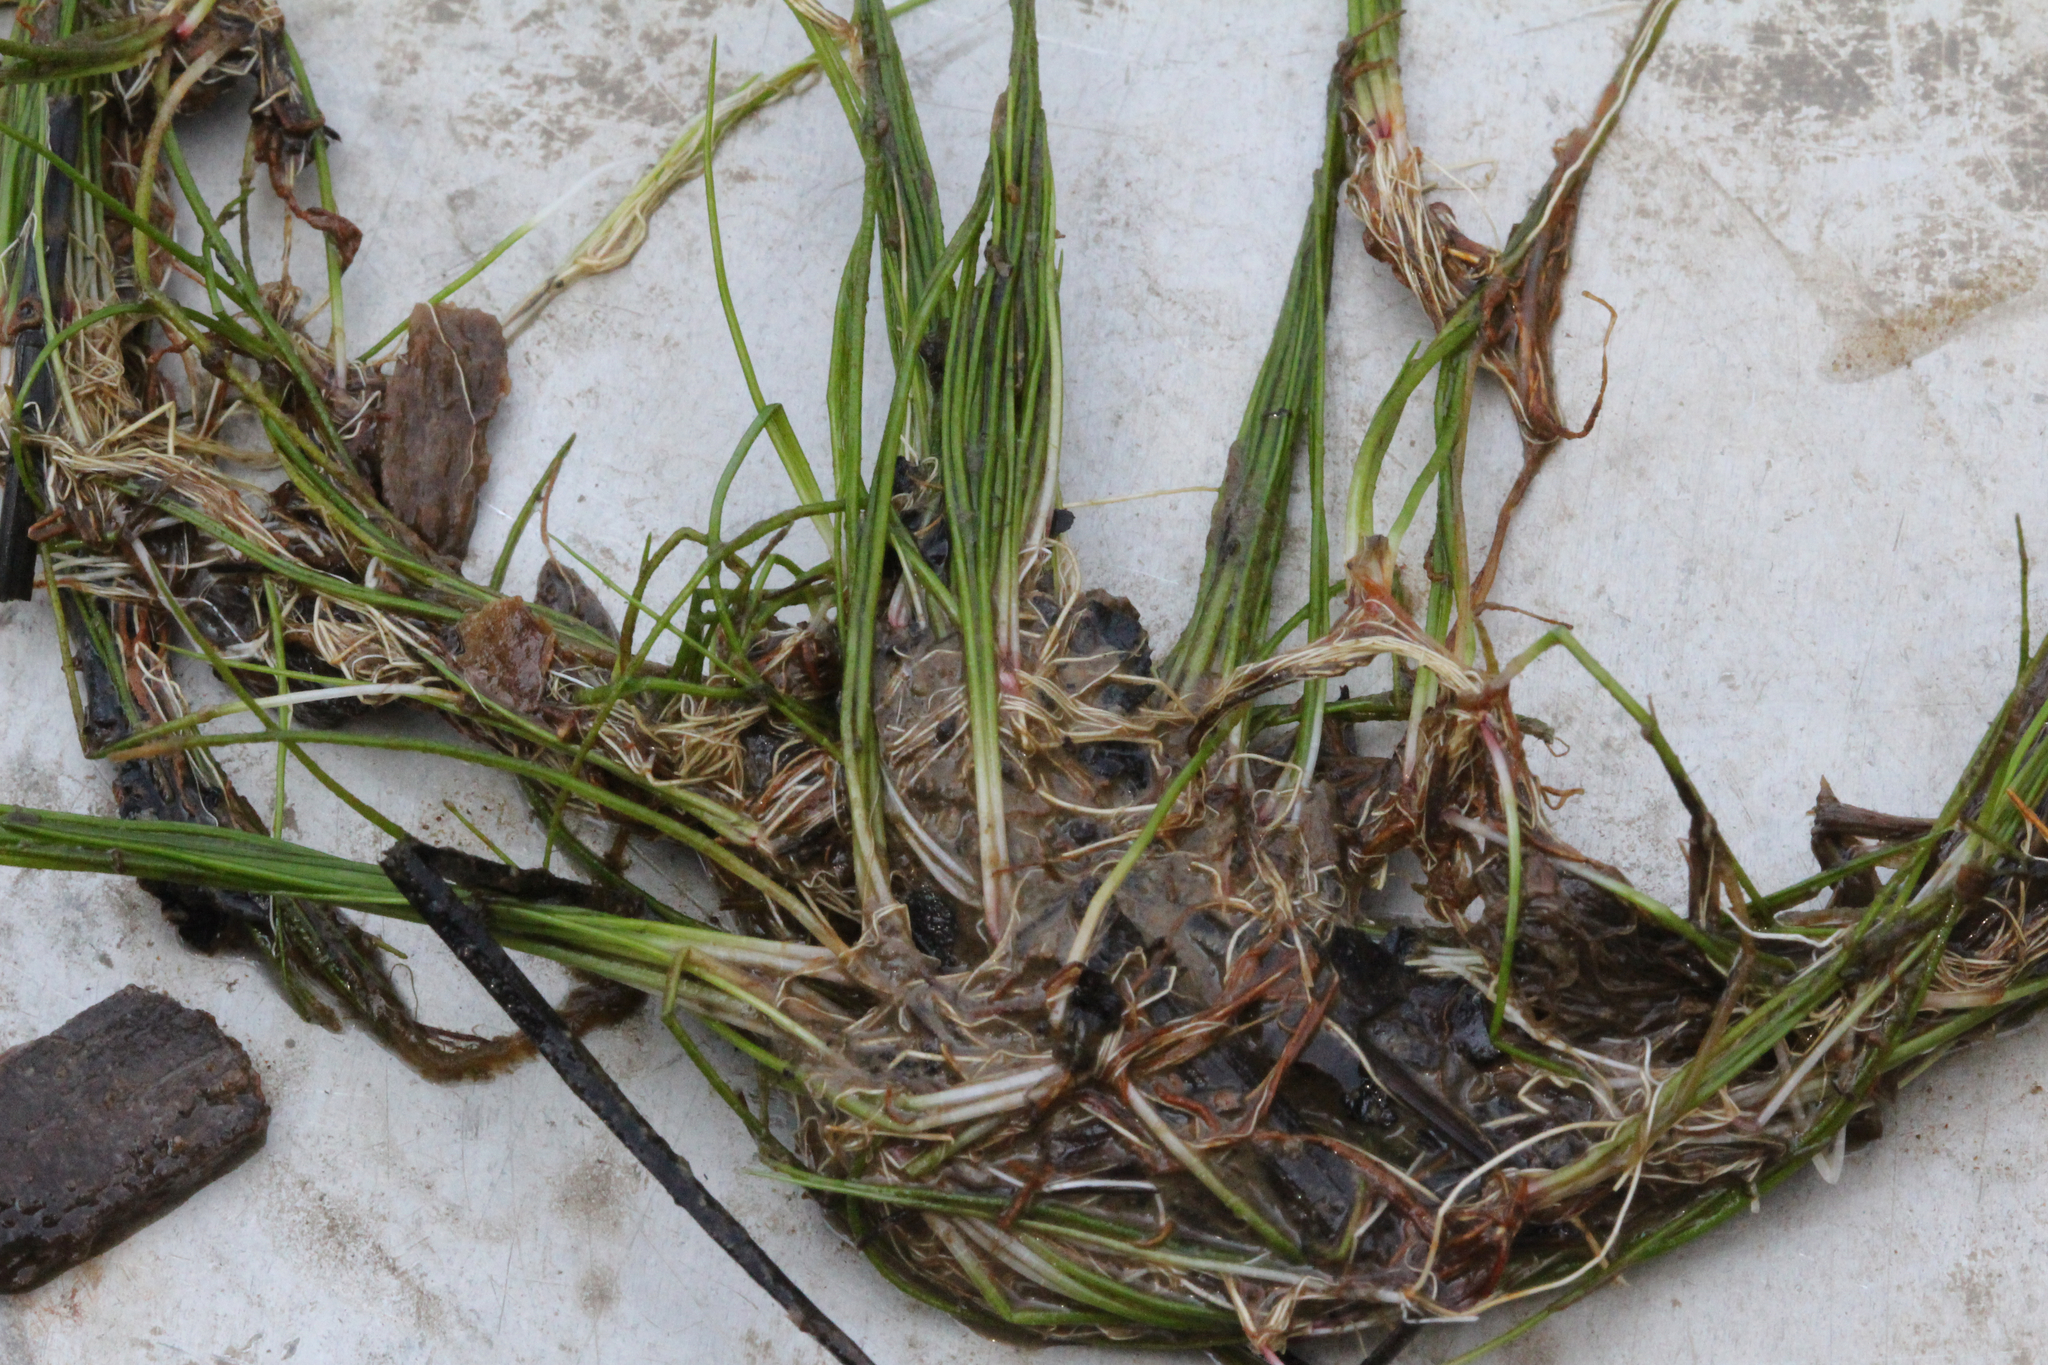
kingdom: Plantae
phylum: Tracheophyta
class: Liliopsida
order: Poales
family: Cyperaceae
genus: Eleocharis
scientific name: Eleocharis vivipara
